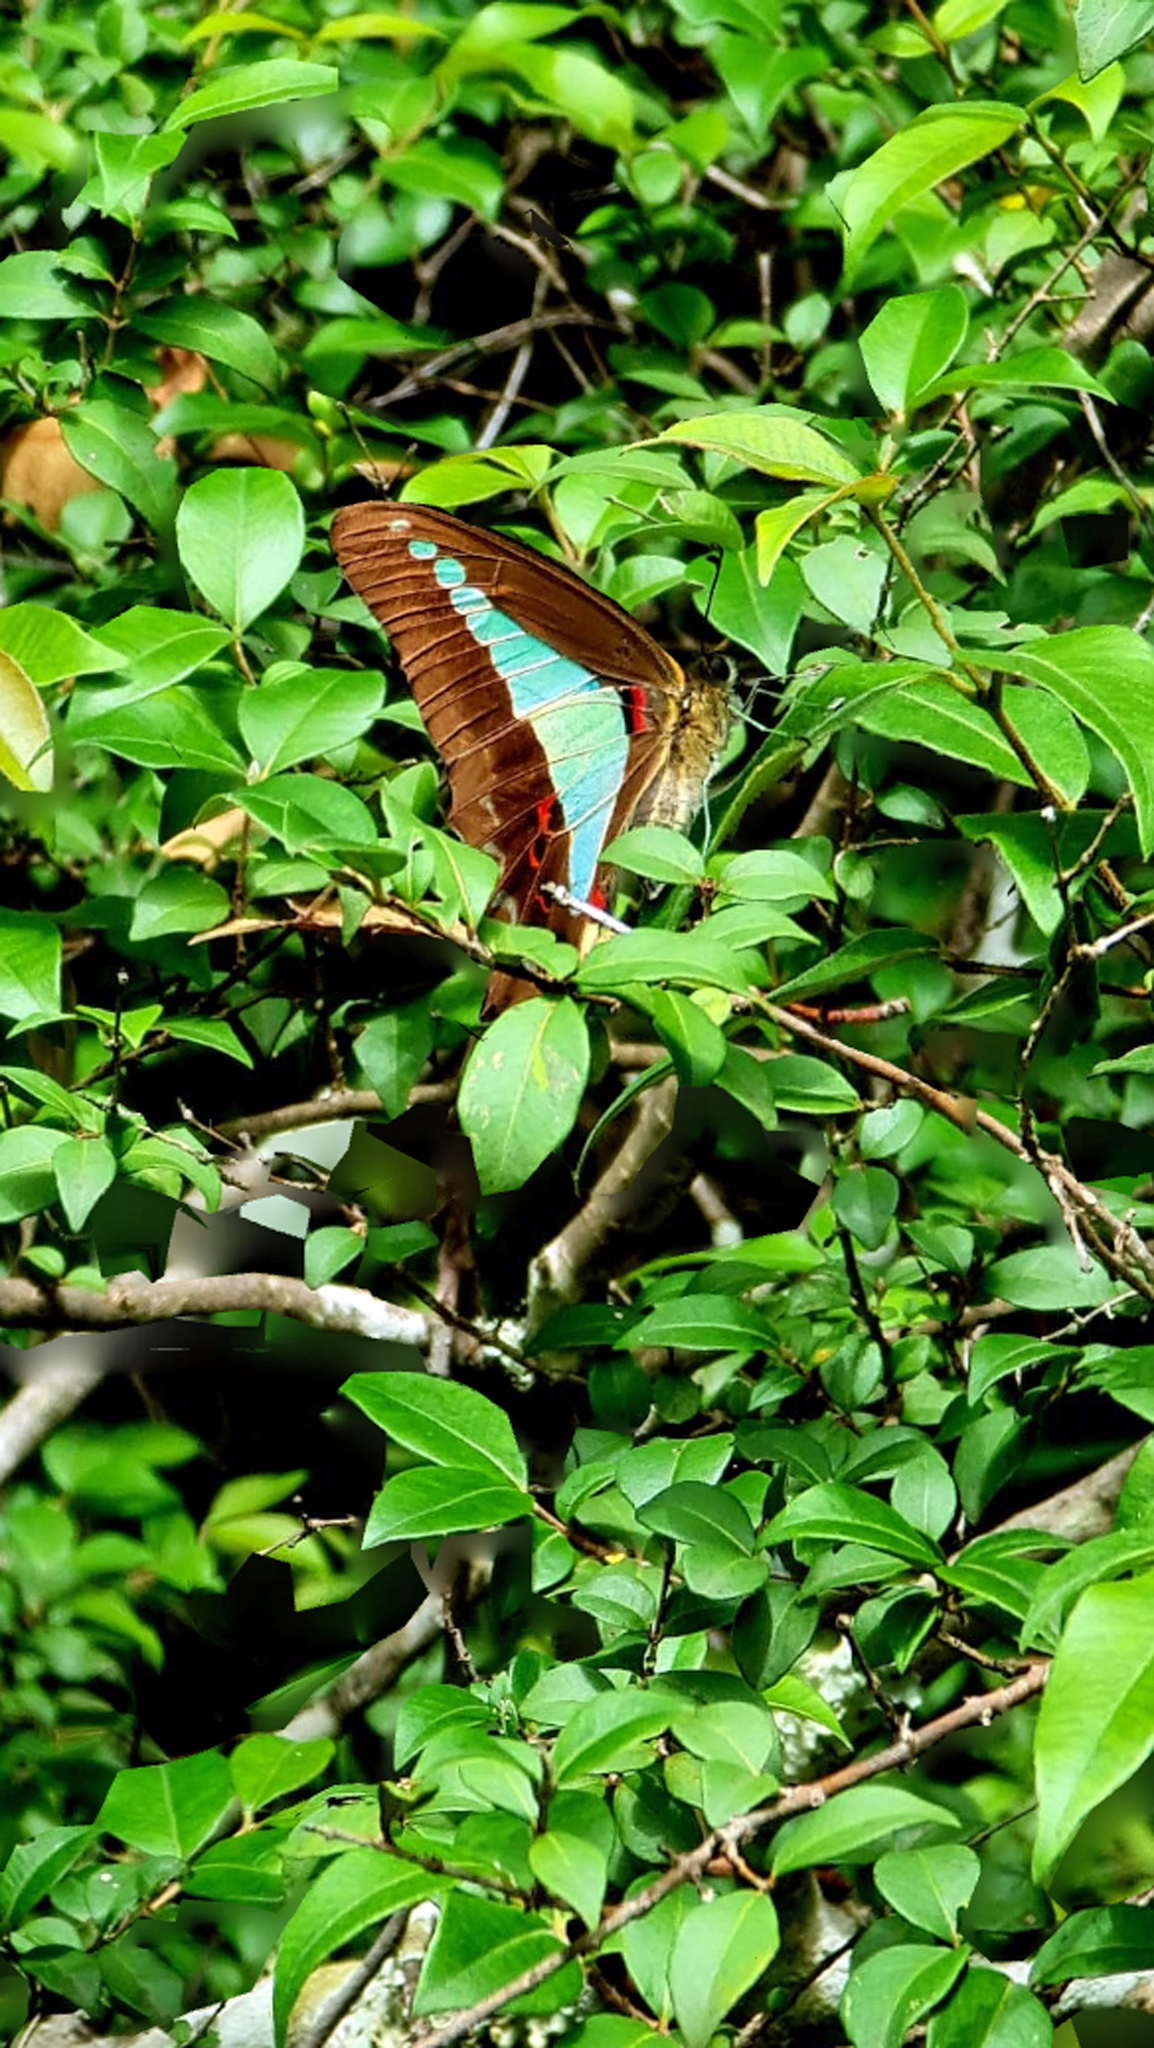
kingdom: Animalia
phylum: Arthropoda
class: Insecta
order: Lepidoptera
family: Papilionidae
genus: Graphium
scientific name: Graphium
